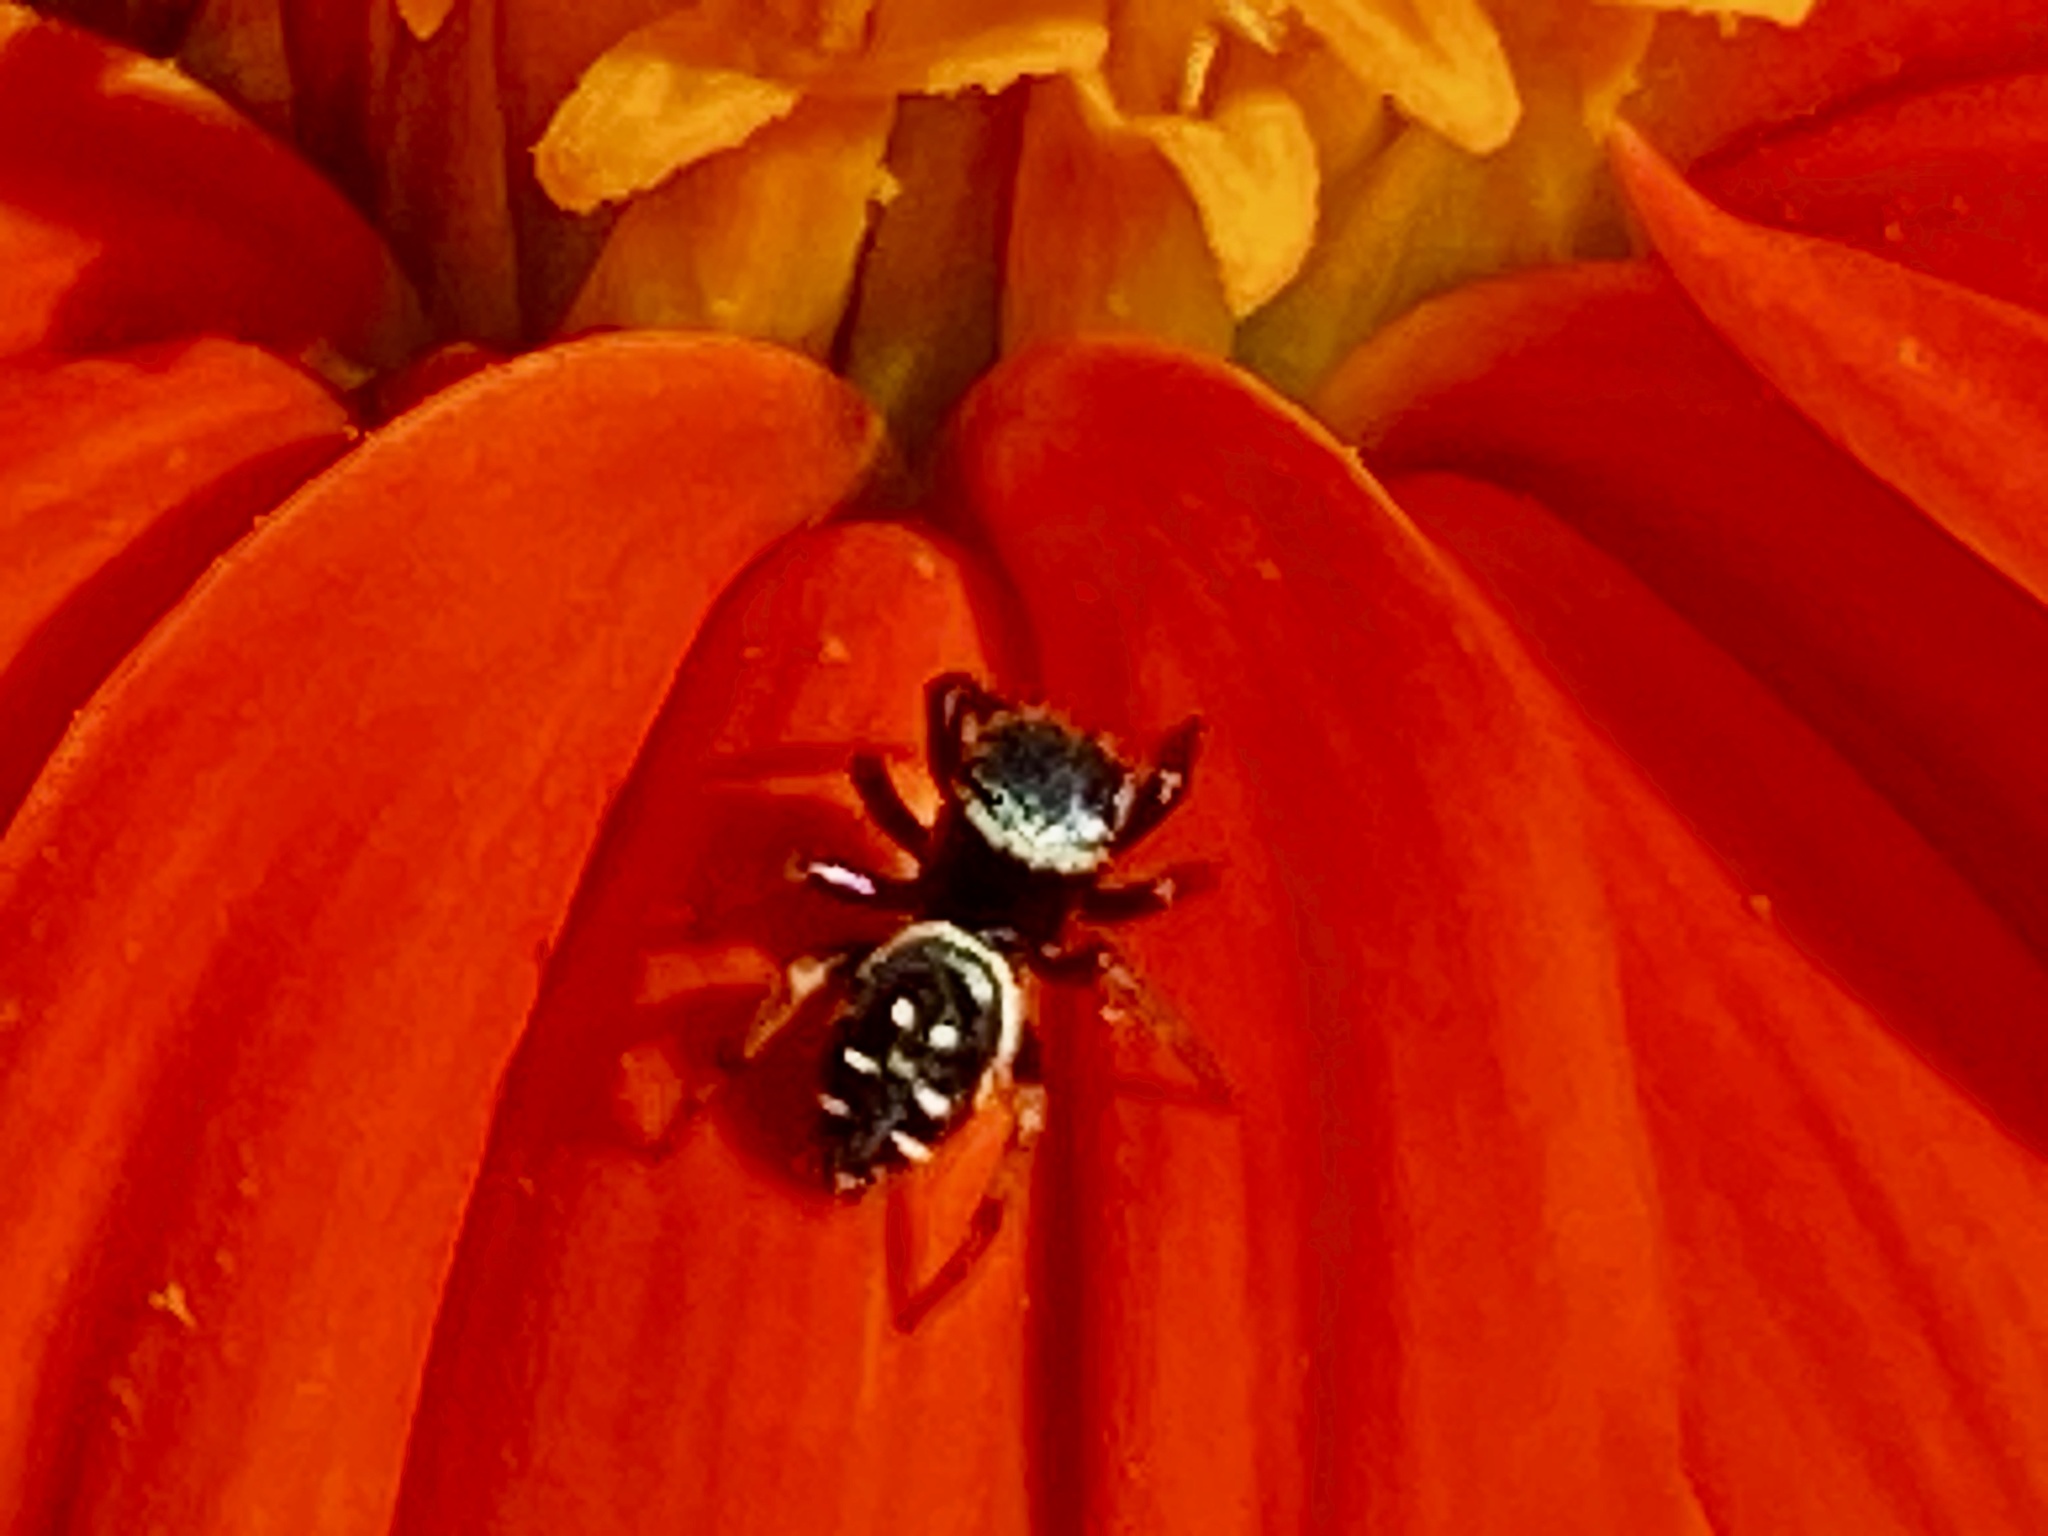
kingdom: Animalia
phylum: Arthropoda
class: Arachnida
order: Araneae
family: Salticidae
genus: Paraphidippus
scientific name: Paraphidippus aurantius
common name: Jumping spiders
